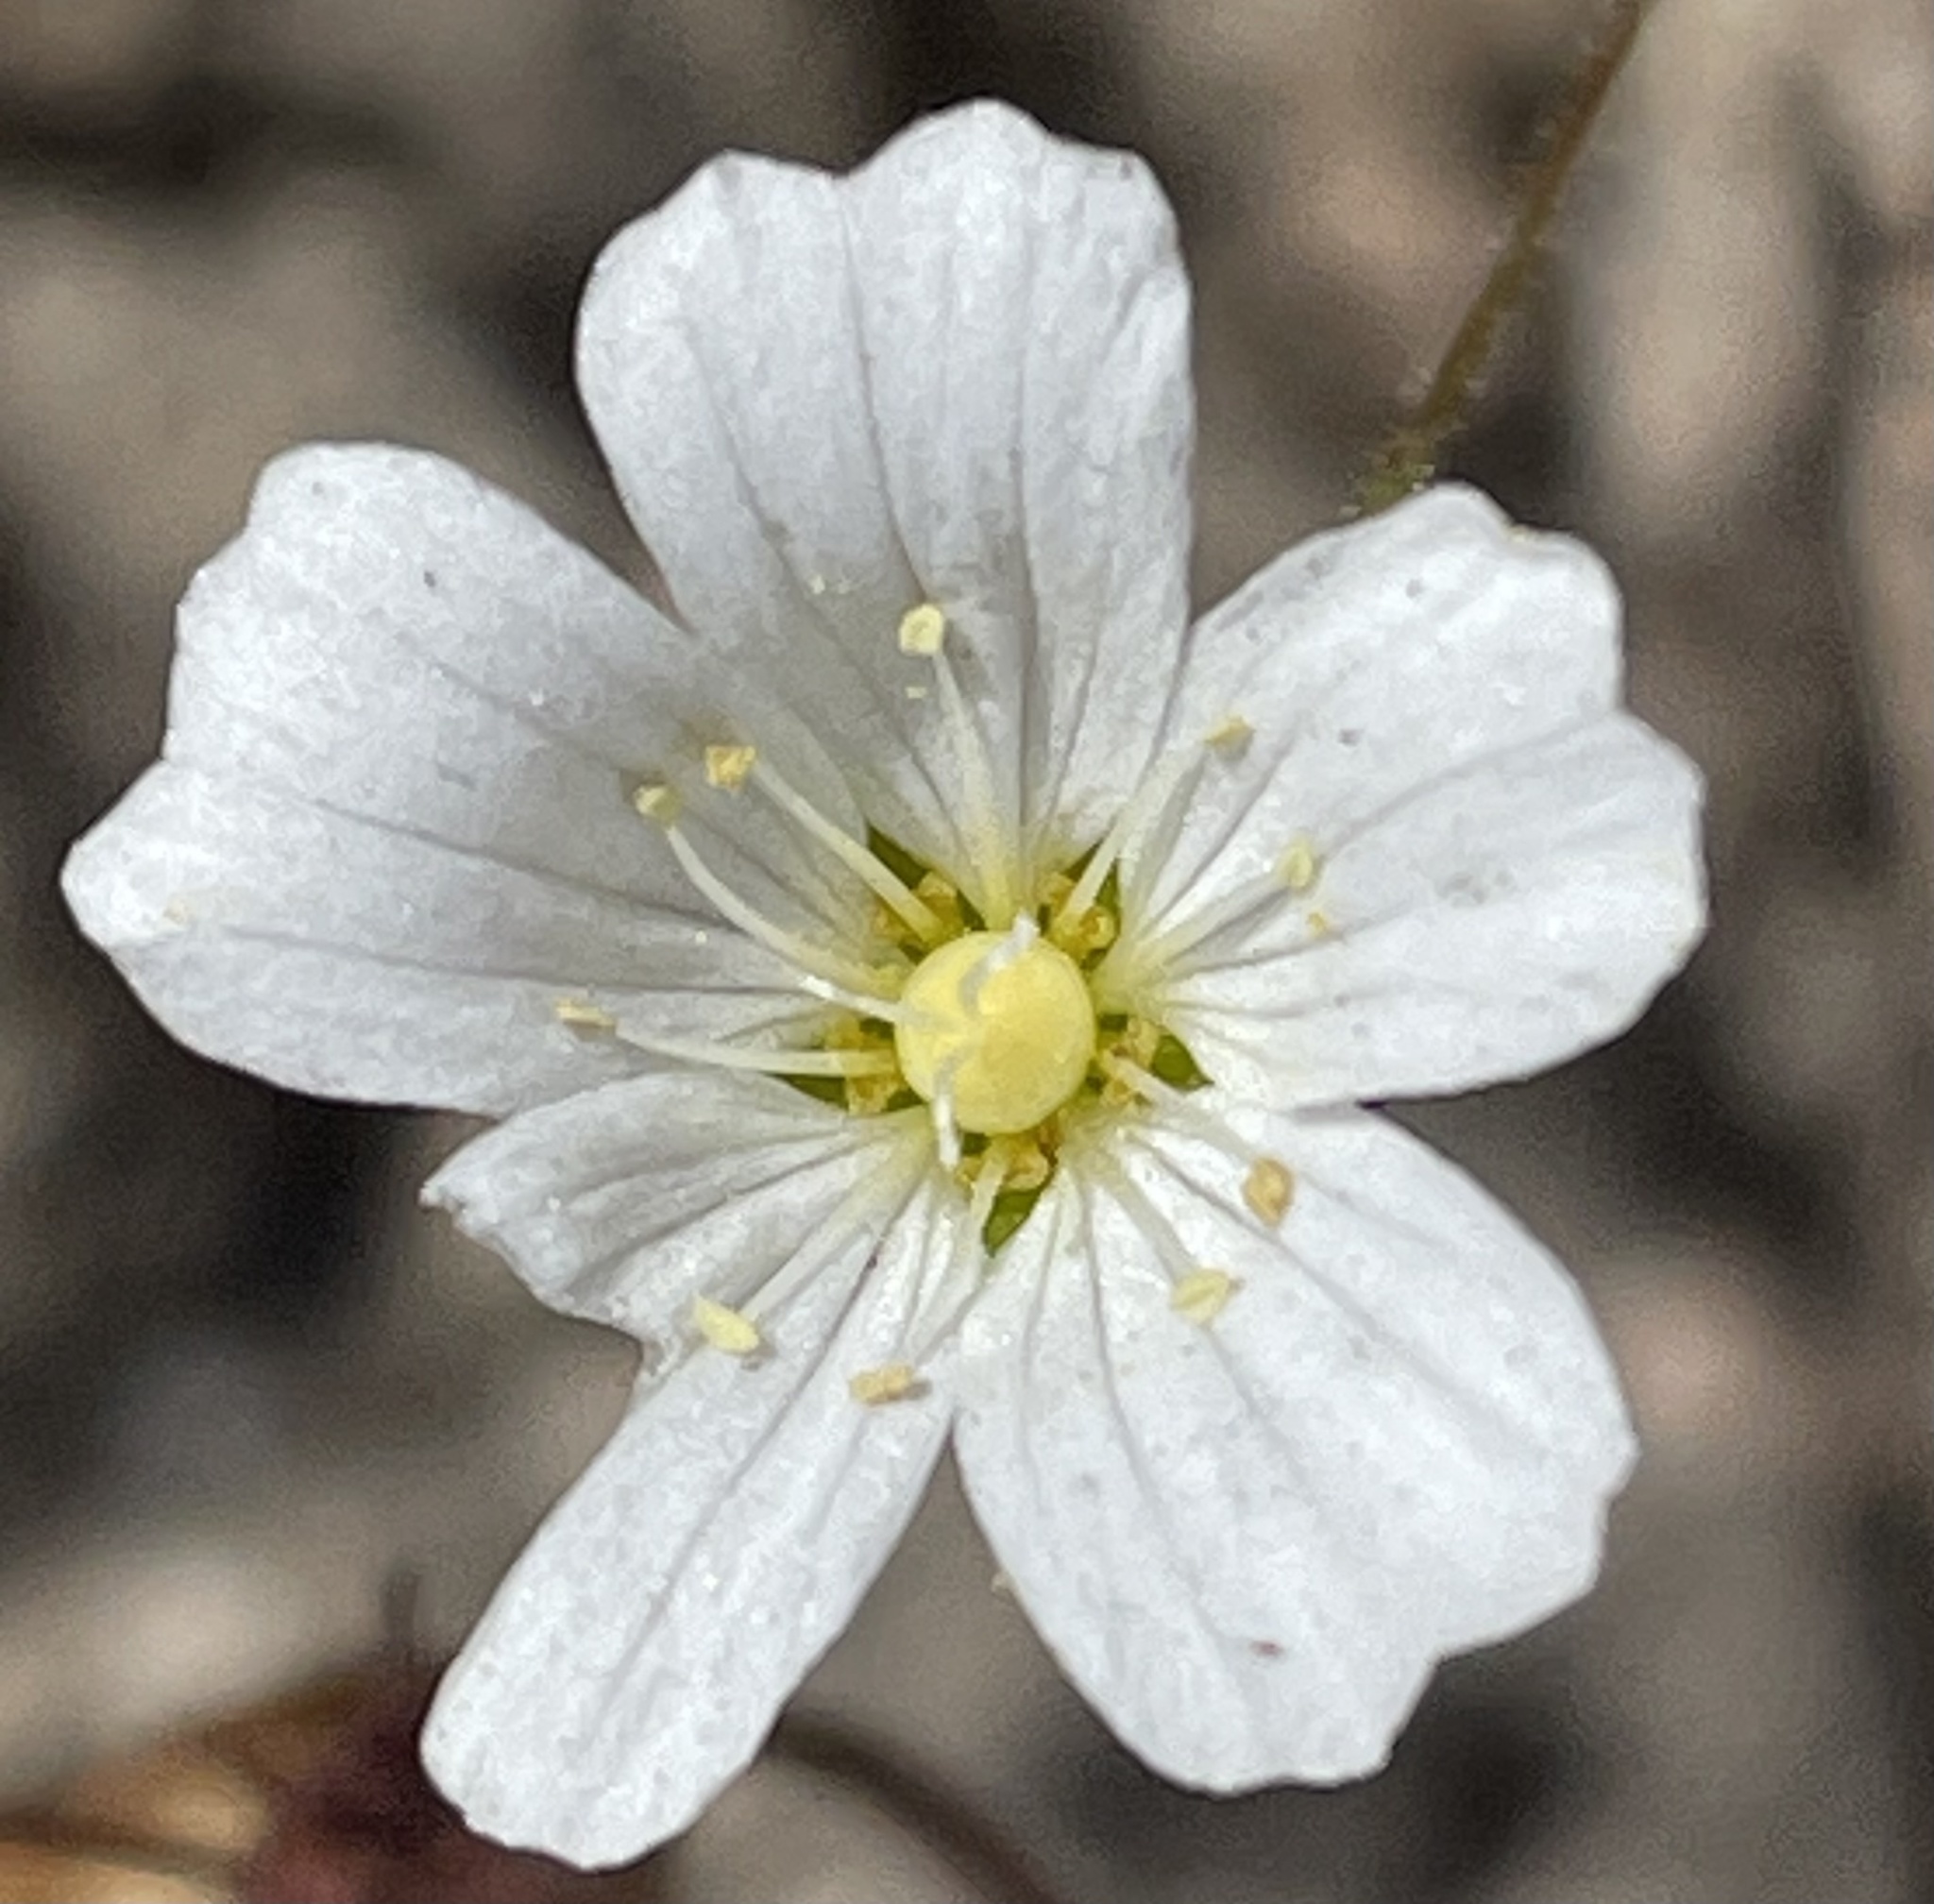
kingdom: Plantae
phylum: Tracheophyta
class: Magnoliopsida
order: Caryophyllales
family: Caryophyllaceae
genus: Sabulina
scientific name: Sabulina douglasii
